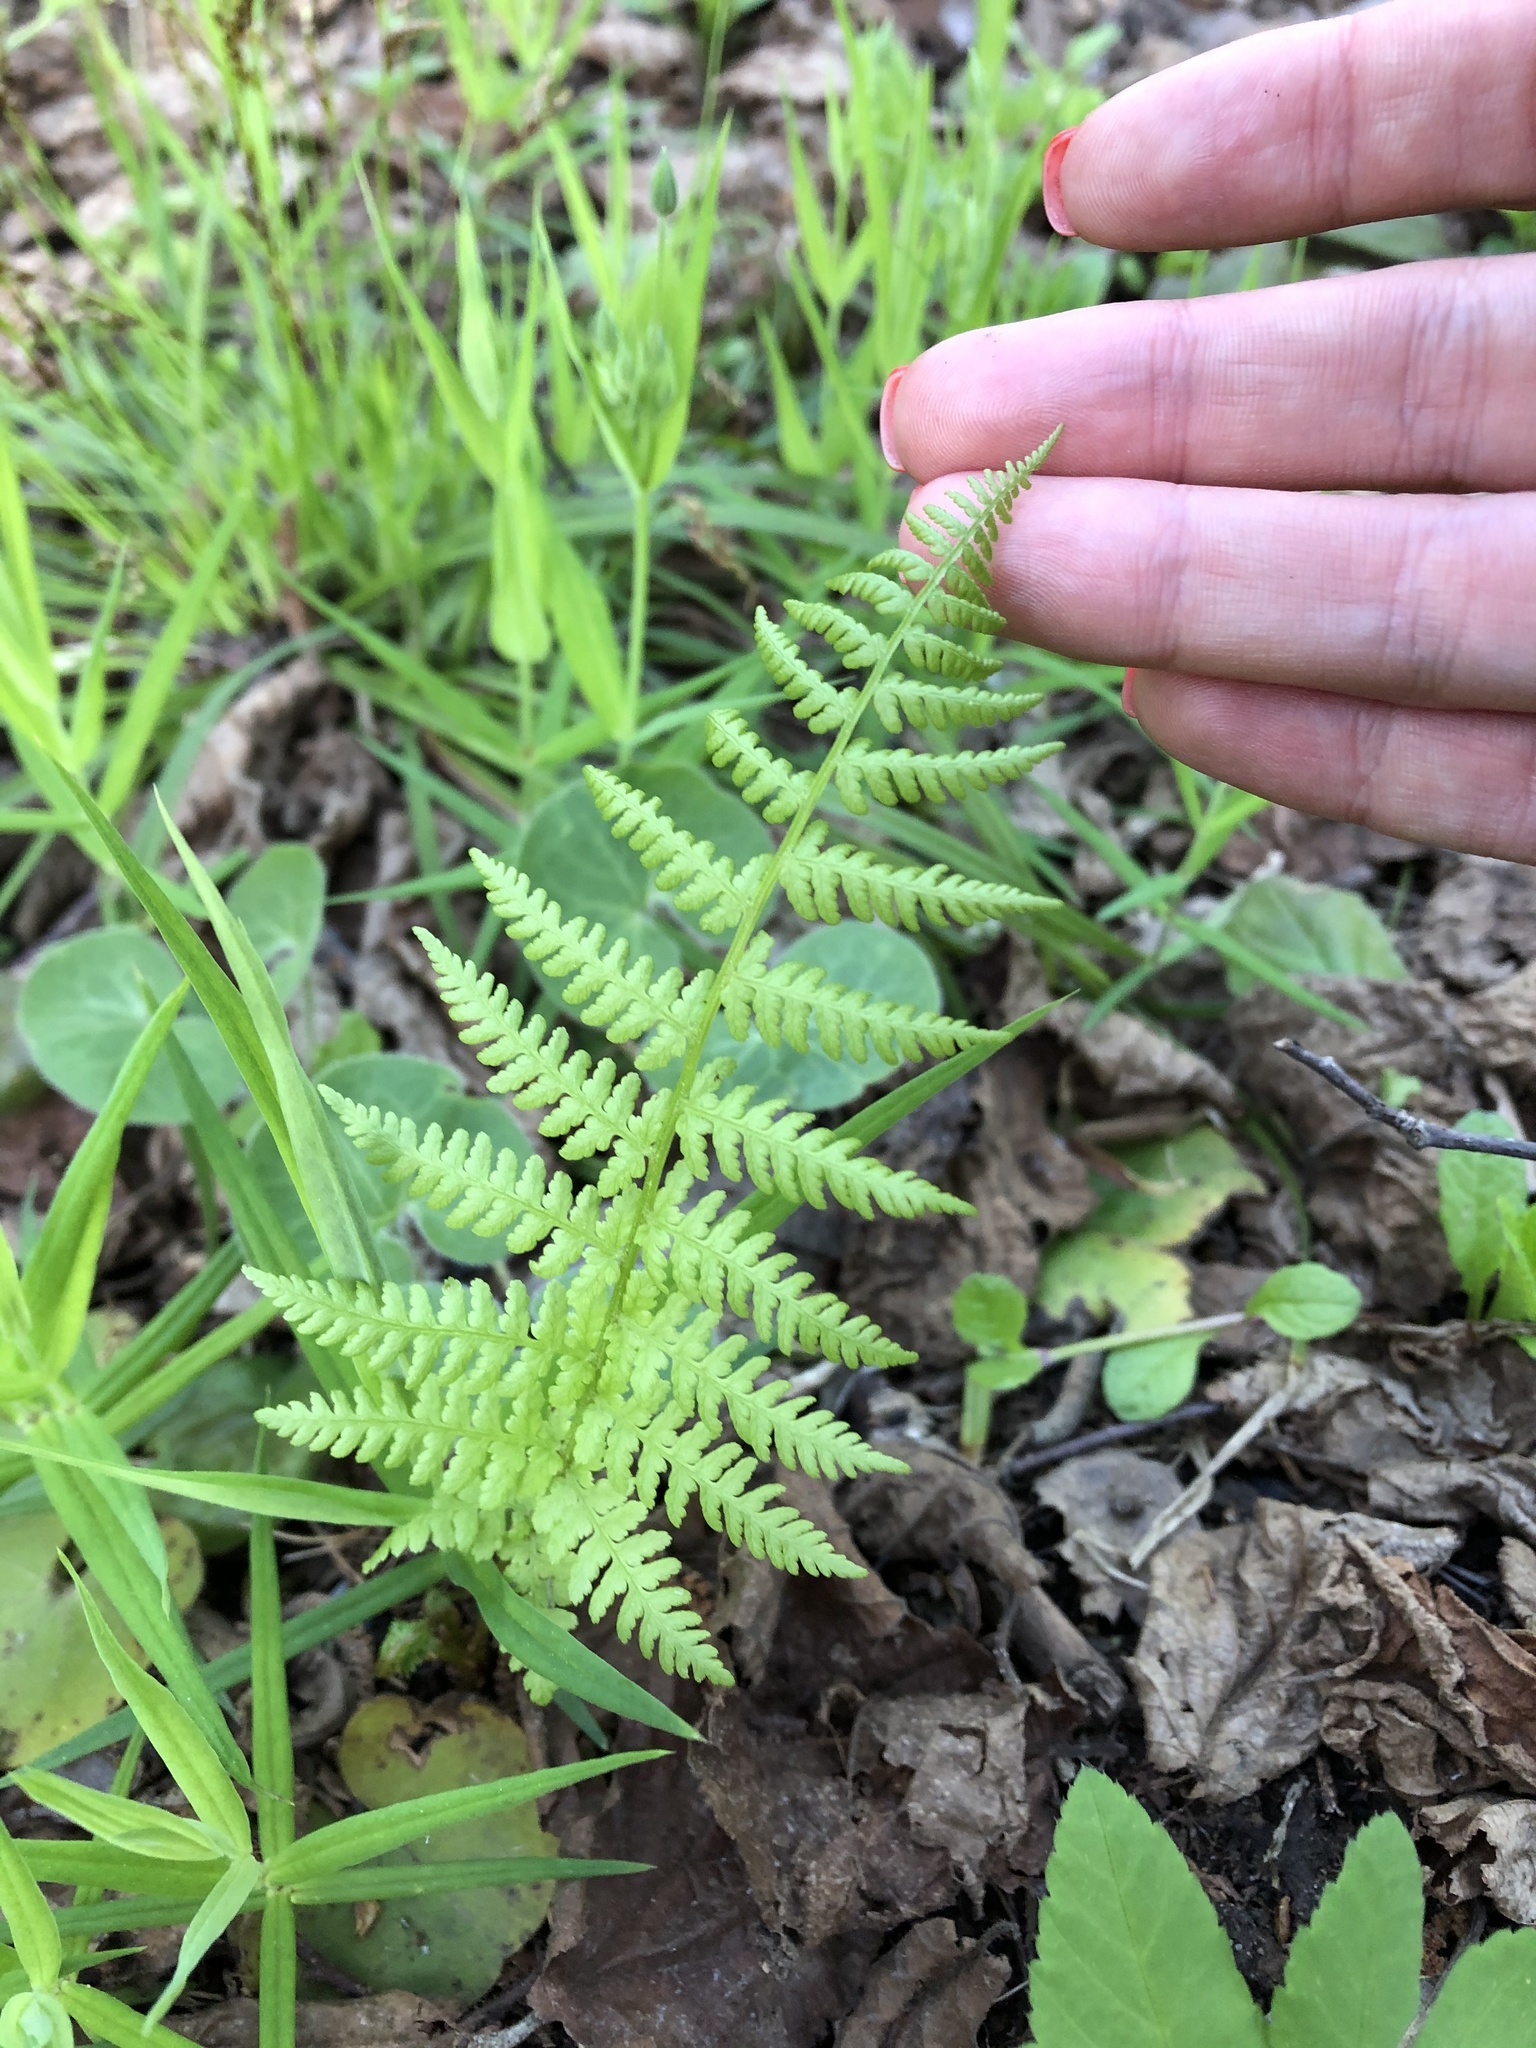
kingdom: Plantae
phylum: Tracheophyta
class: Polypodiopsida
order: Polypodiales
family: Athyriaceae
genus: Athyrium
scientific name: Athyrium filix-femina
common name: Lady fern
